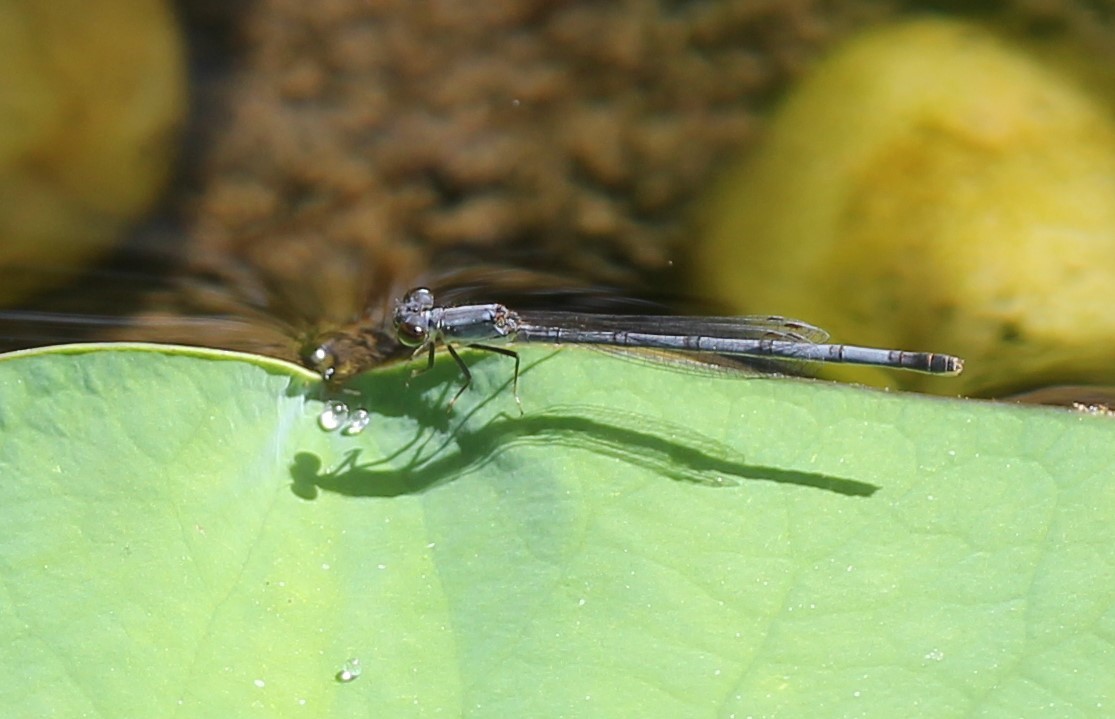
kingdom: Animalia
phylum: Arthropoda
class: Insecta
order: Odonata
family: Coenagrionidae
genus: Ischnura
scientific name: Ischnura posita
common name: Fragile forktail
